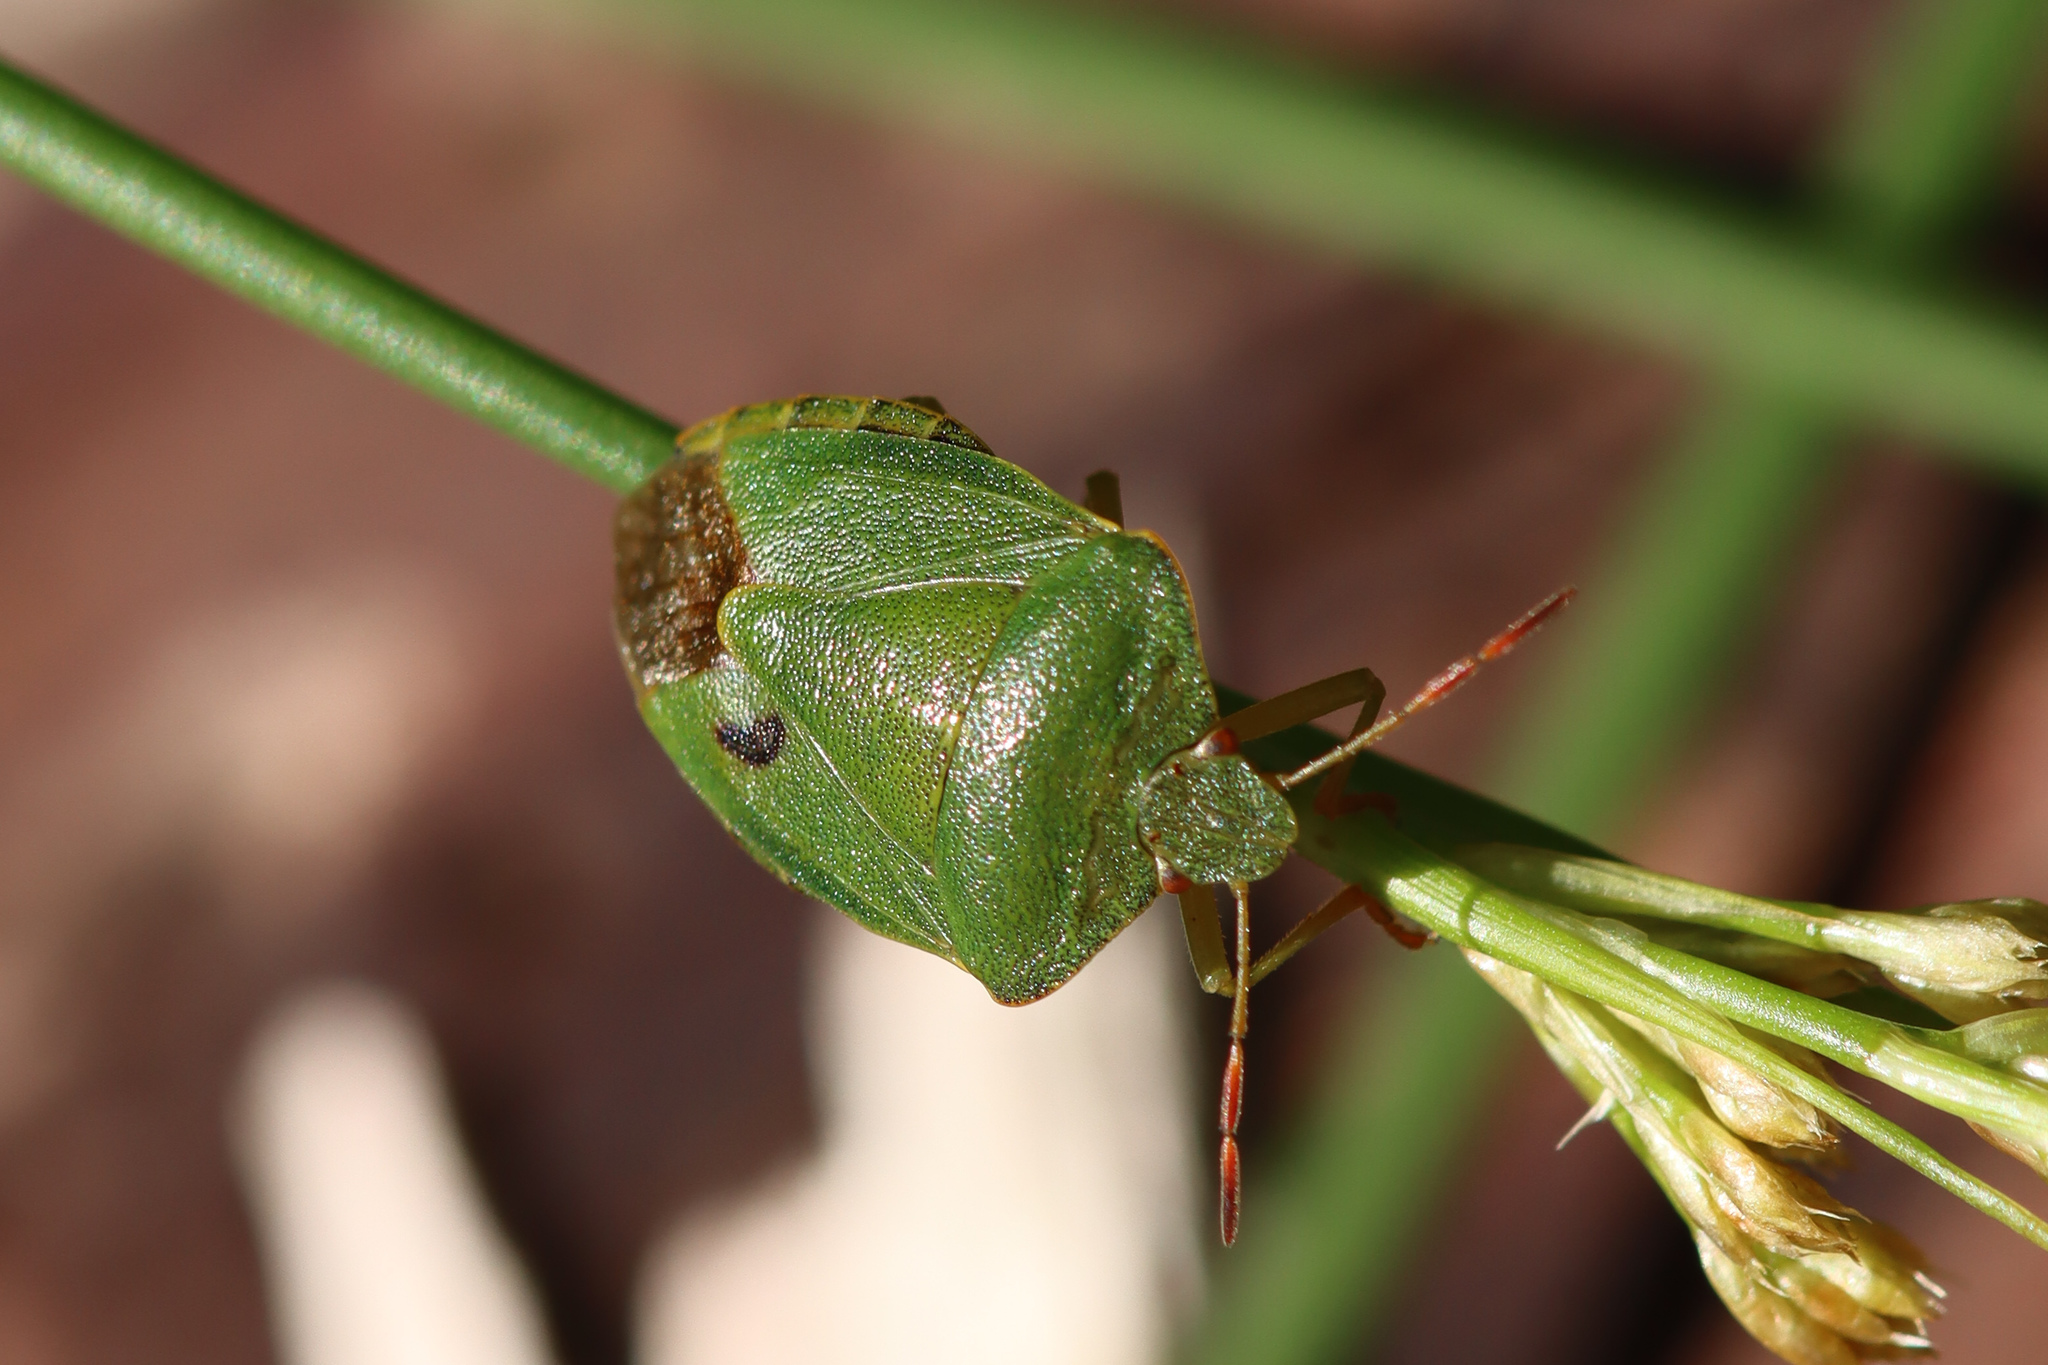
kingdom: Animalia
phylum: Arthropoda
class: Insecta
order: Hemiptera
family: Pentatomidae
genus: Palomena
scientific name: Palomena prasina
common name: Green shieldbug
